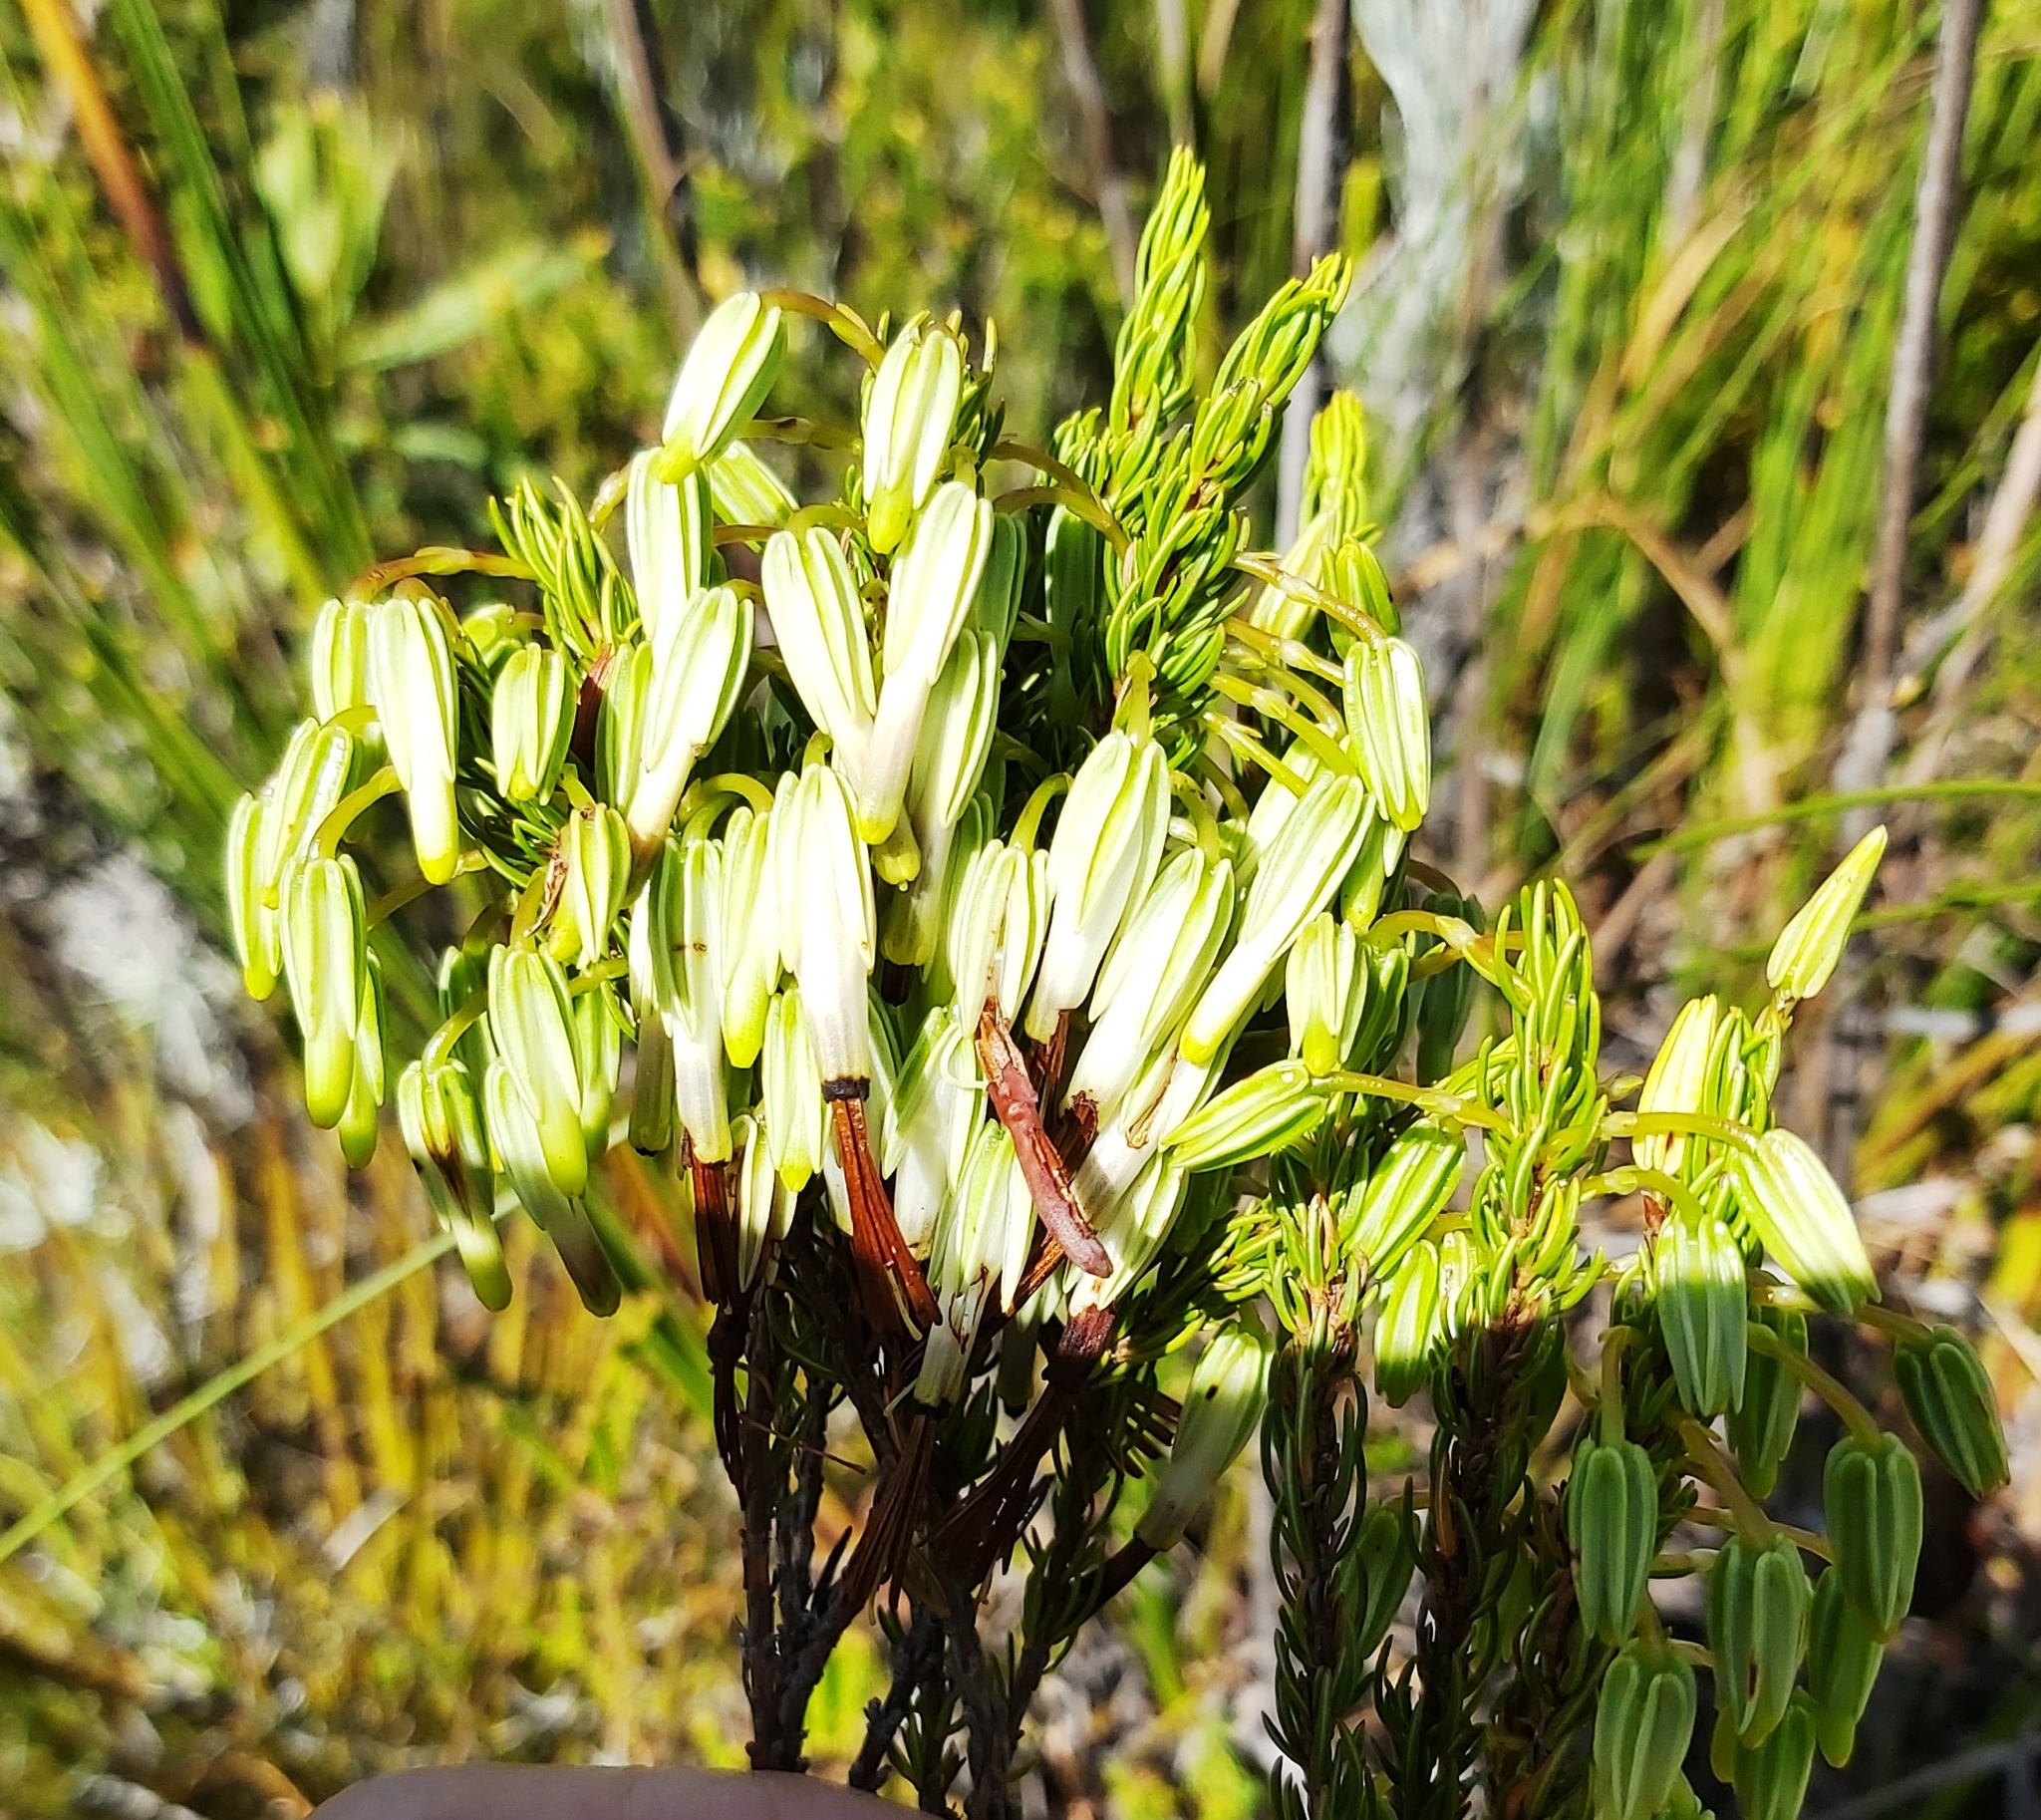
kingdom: Plantae
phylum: Tracheophyta
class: Magnoliopsida
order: Ericales
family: Ericaceae
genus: Erica
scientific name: Erica plukenetii
